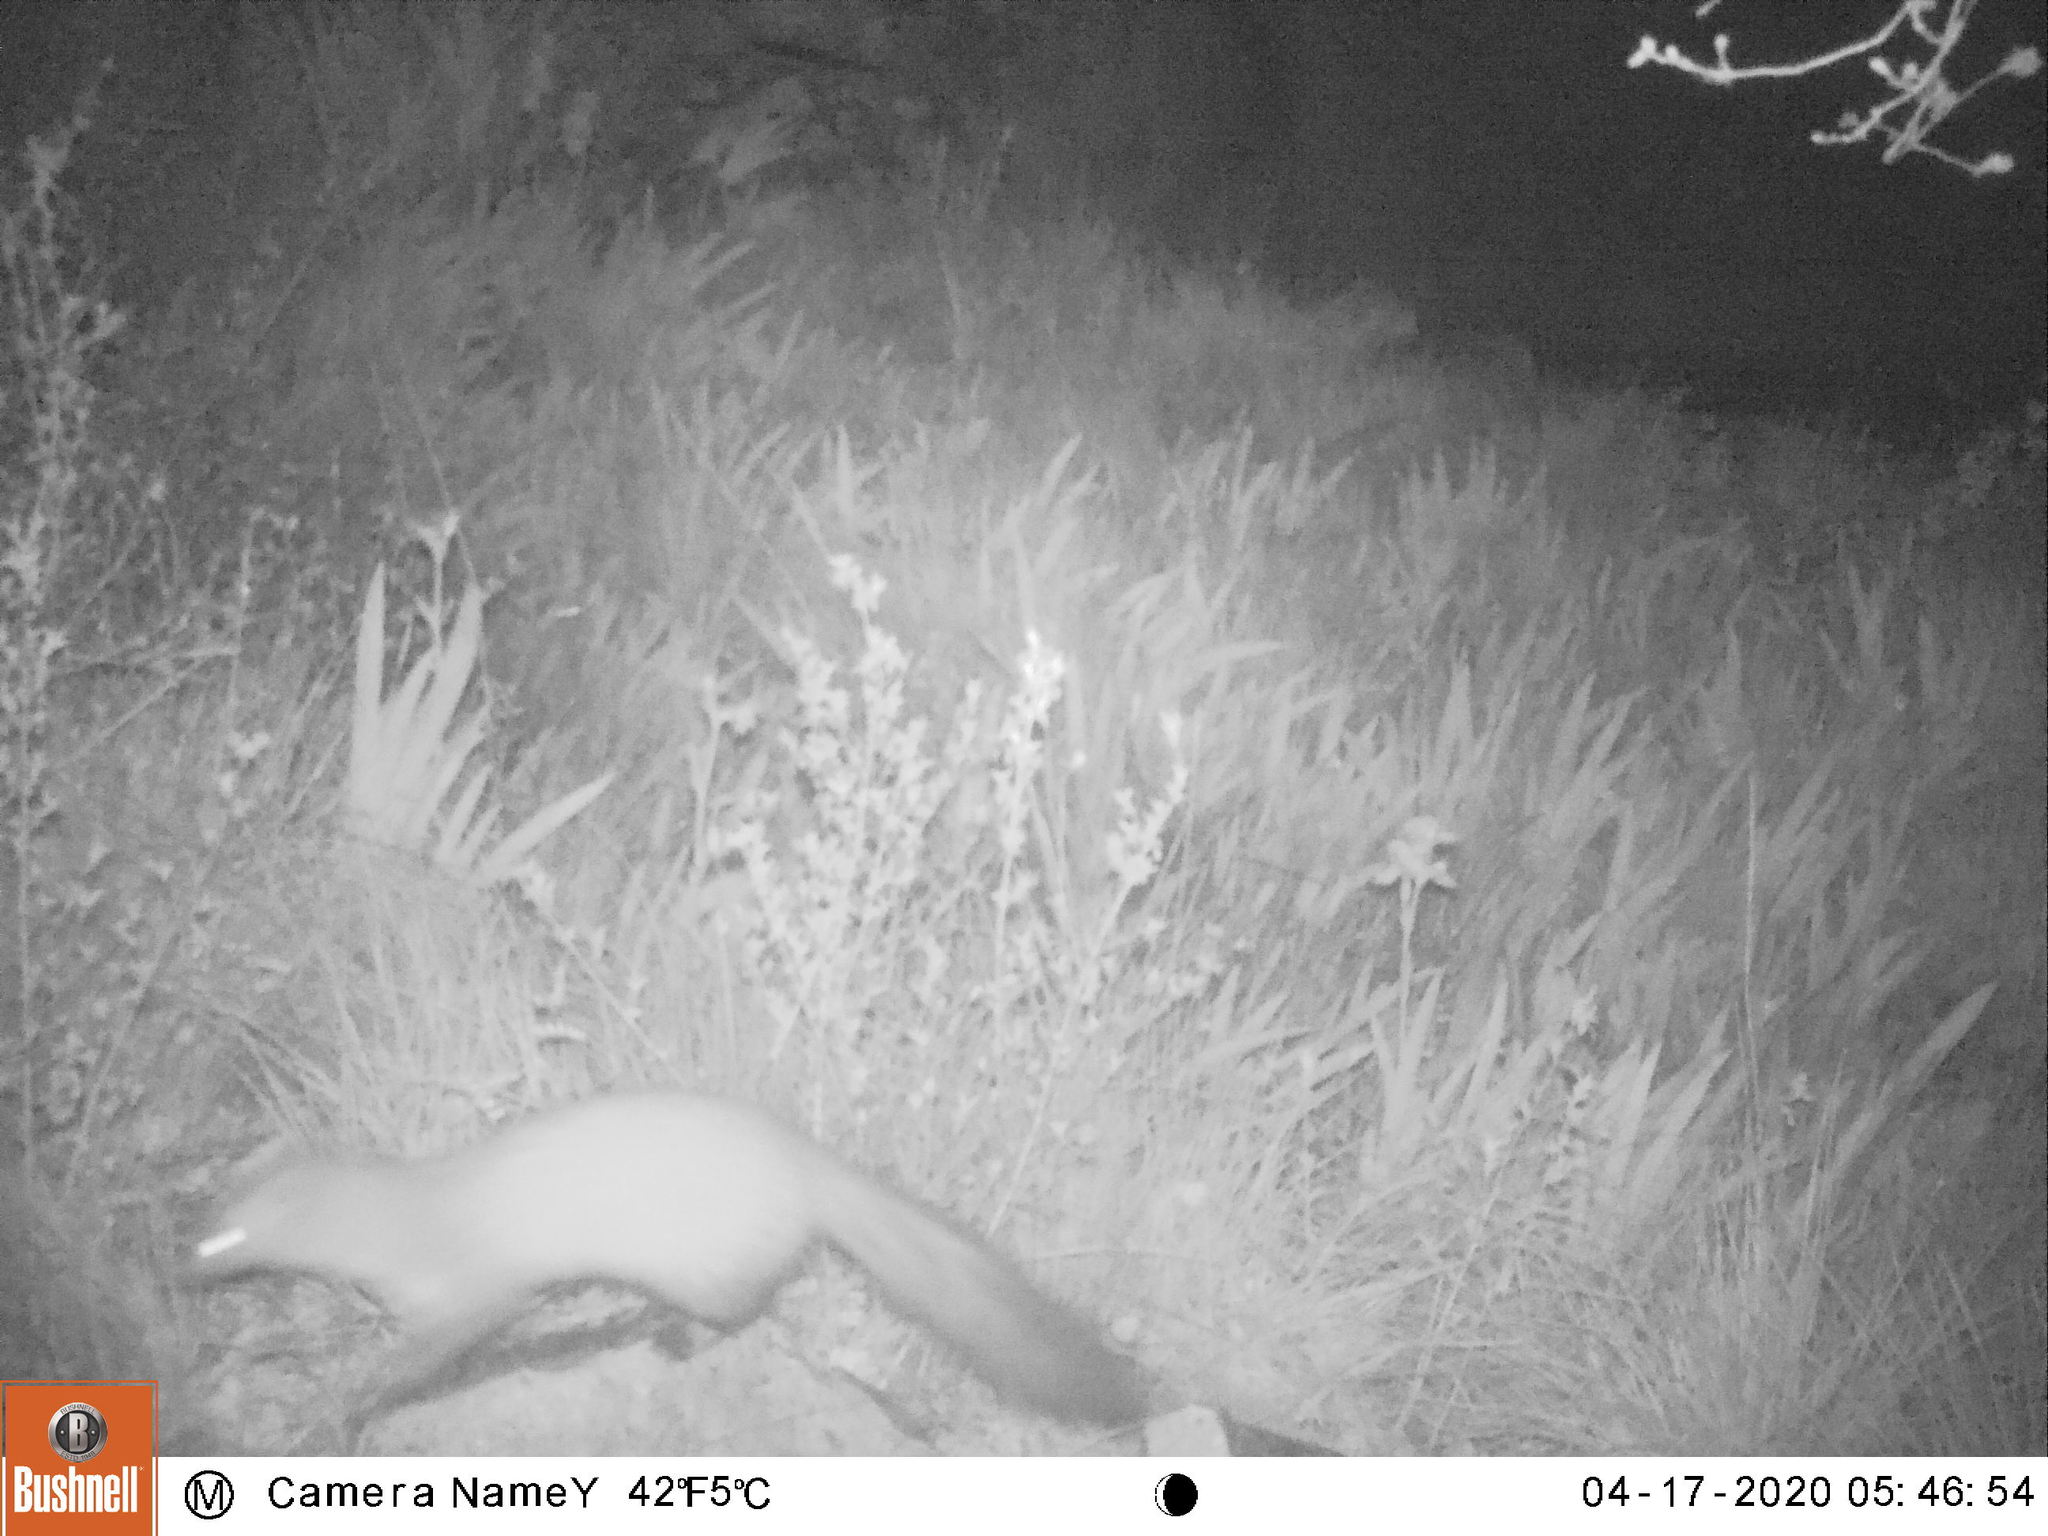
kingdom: Animalia
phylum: Chordata
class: Mammalia
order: Carnivora
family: Mustelidae
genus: Martes
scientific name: Martes
